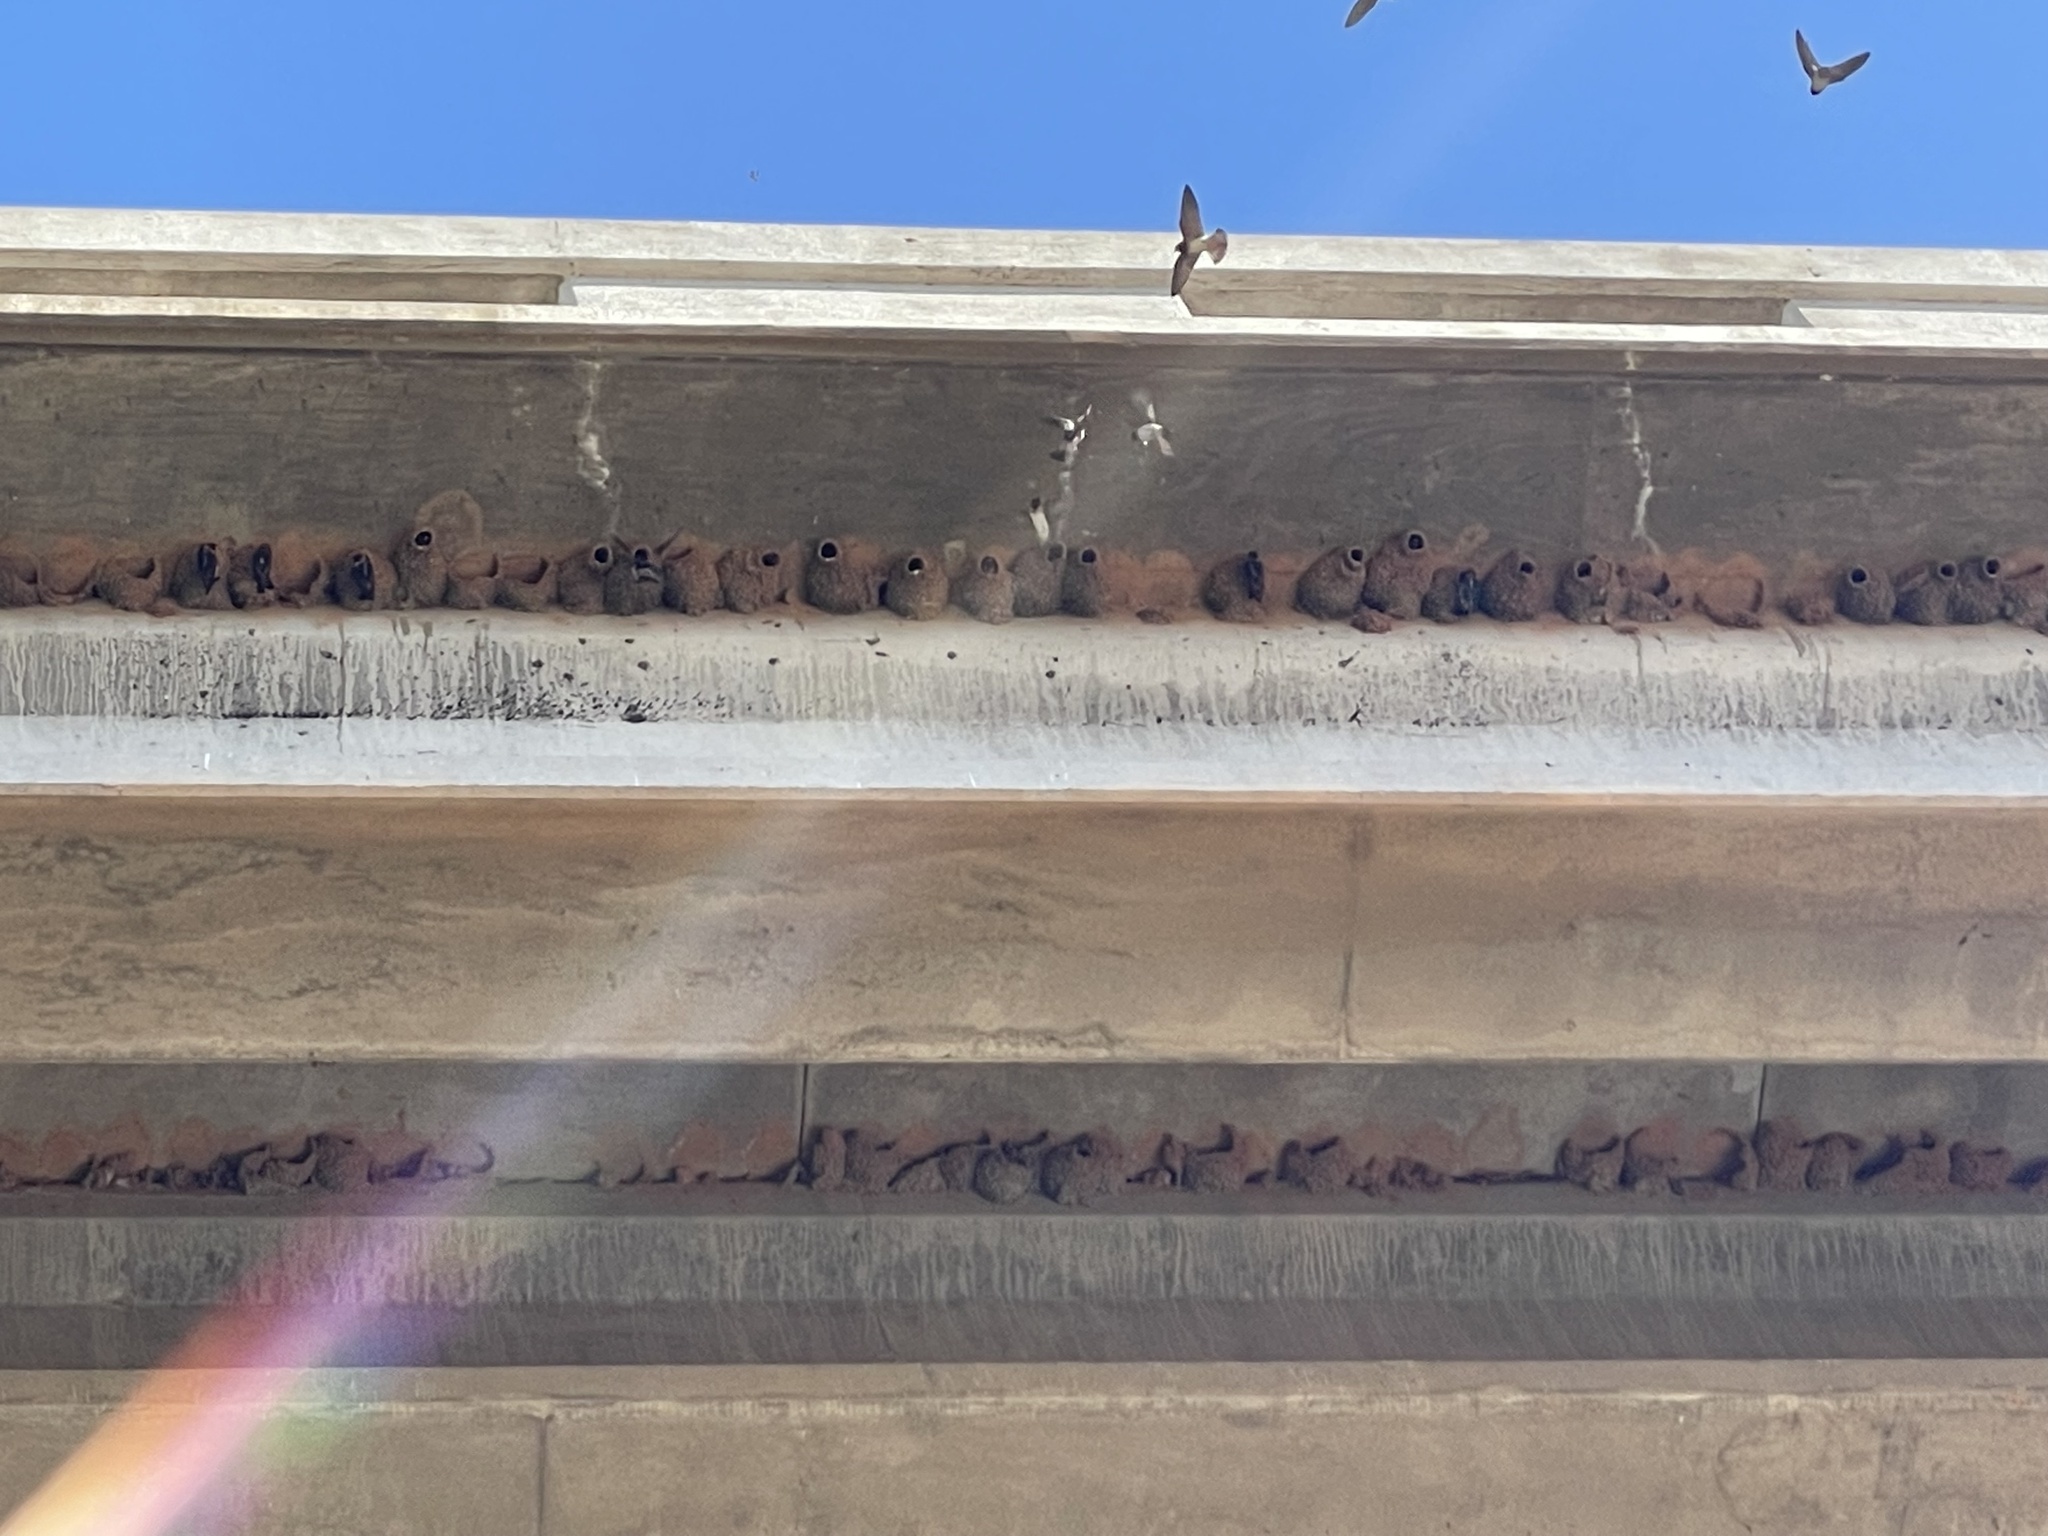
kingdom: Animalia
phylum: Chordata
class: Aves
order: Passeriformes
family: Hirundinidae
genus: Petrochelidon
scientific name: Petrochelidon pyrrhonota
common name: American cliff swallow
